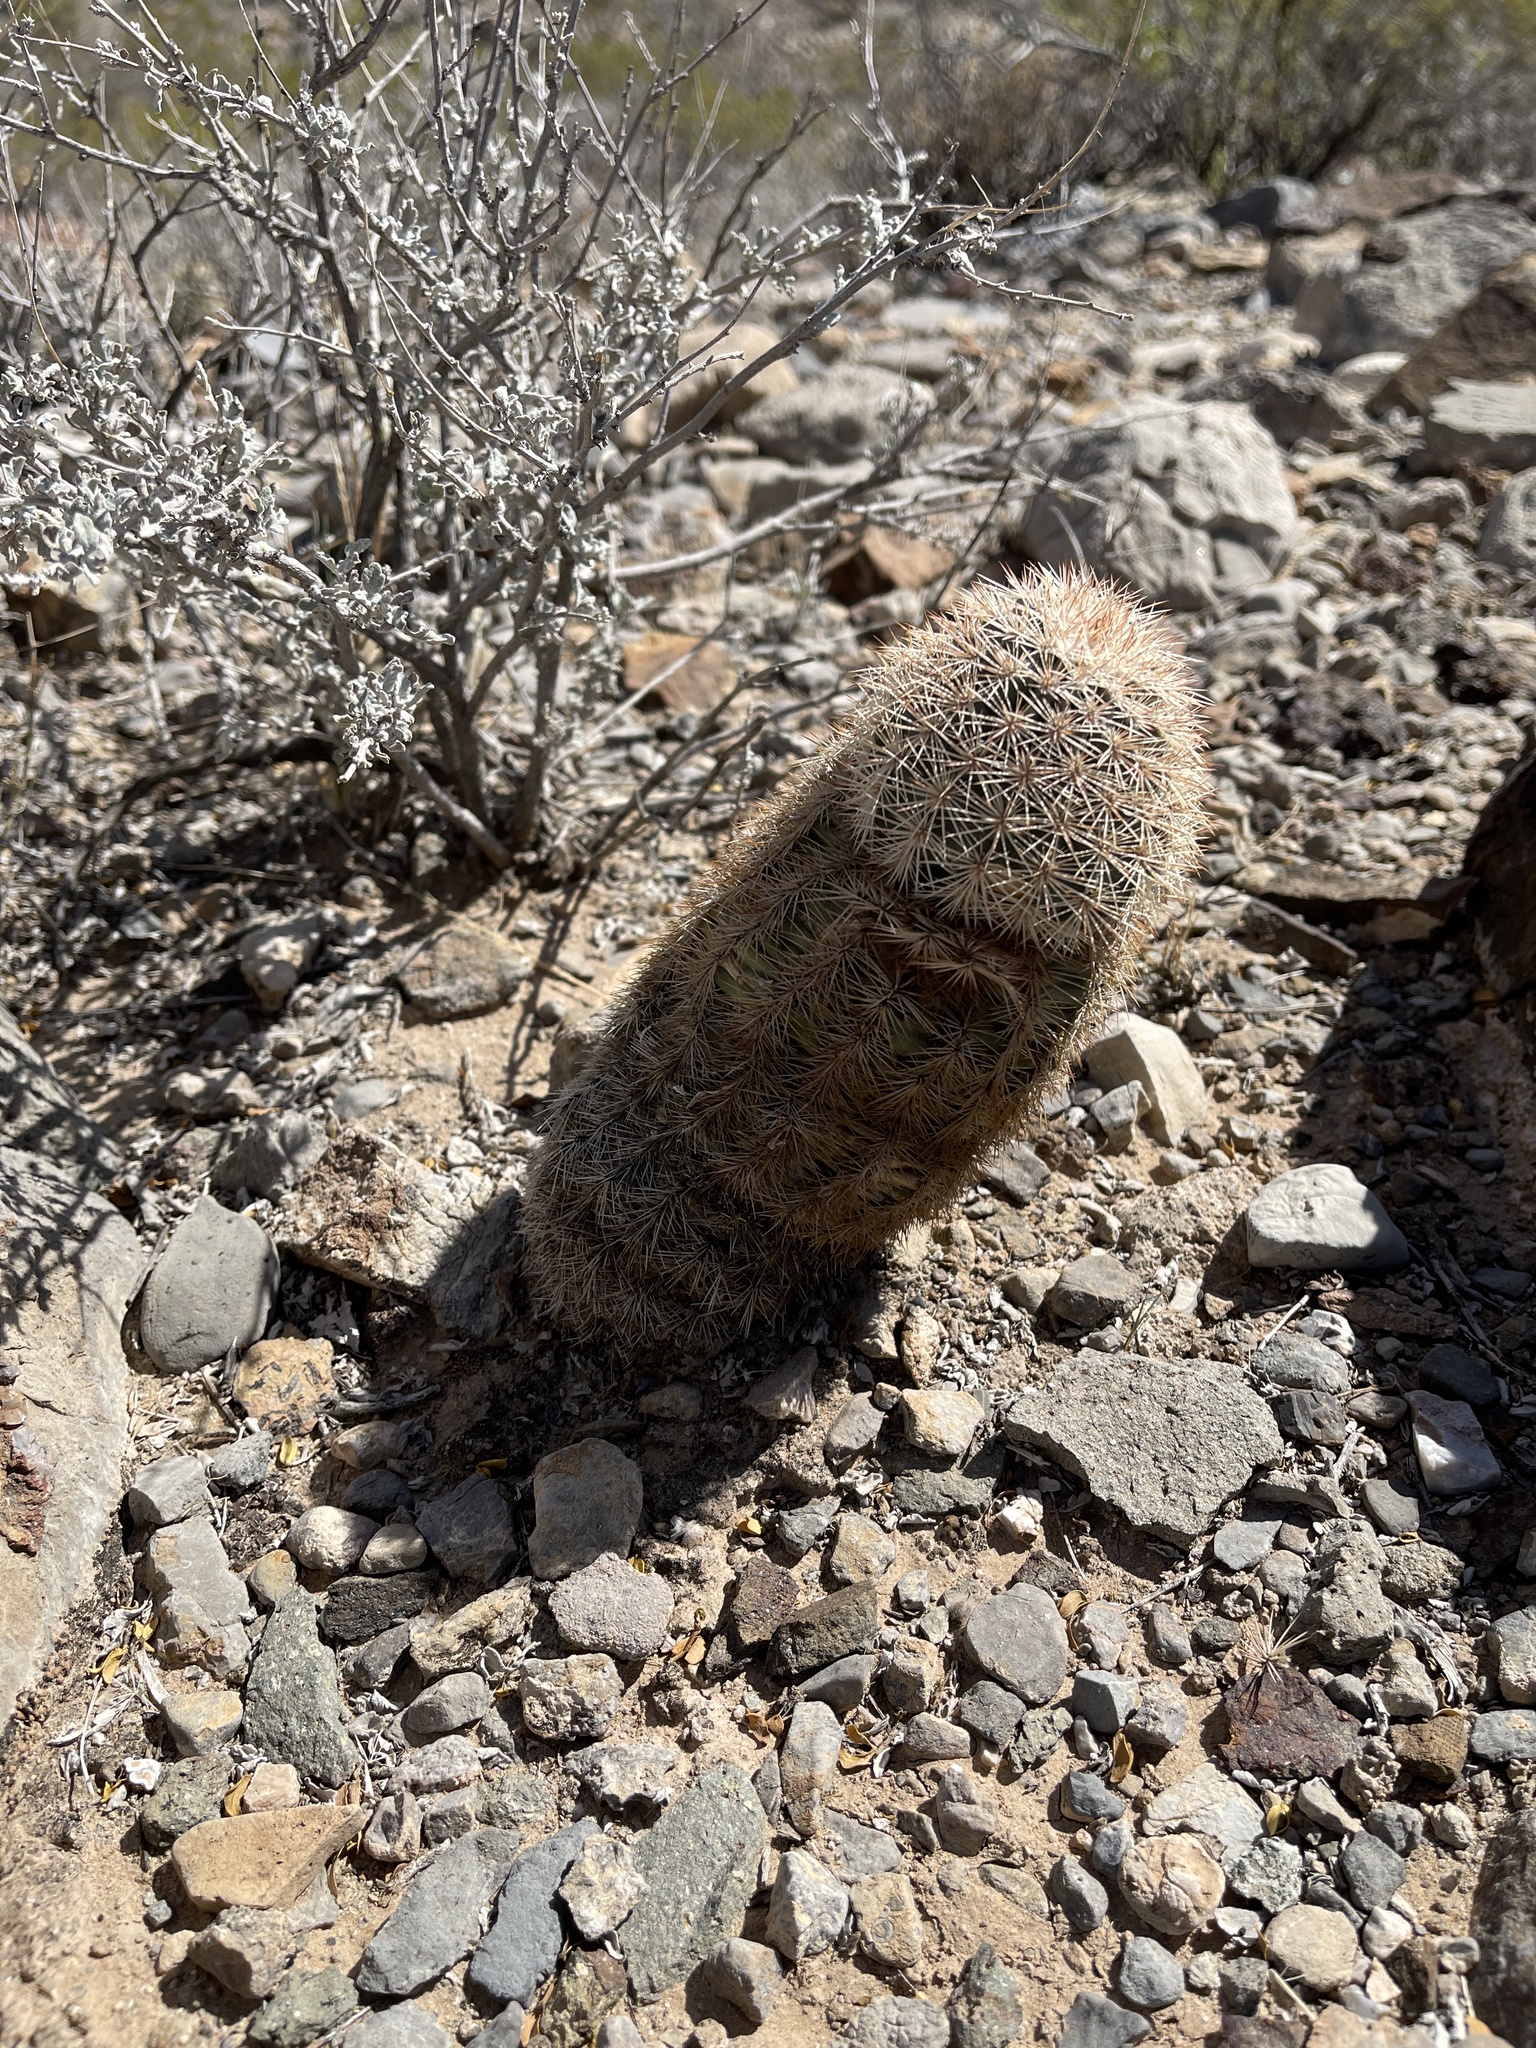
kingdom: Plantae
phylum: Tracheophyta
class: Magnoliopsida
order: Caryophyllales
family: Cactaceae
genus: Echinocereus
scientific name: Echinocereus dasyacanthus
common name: Spiny hedgehog cactus
